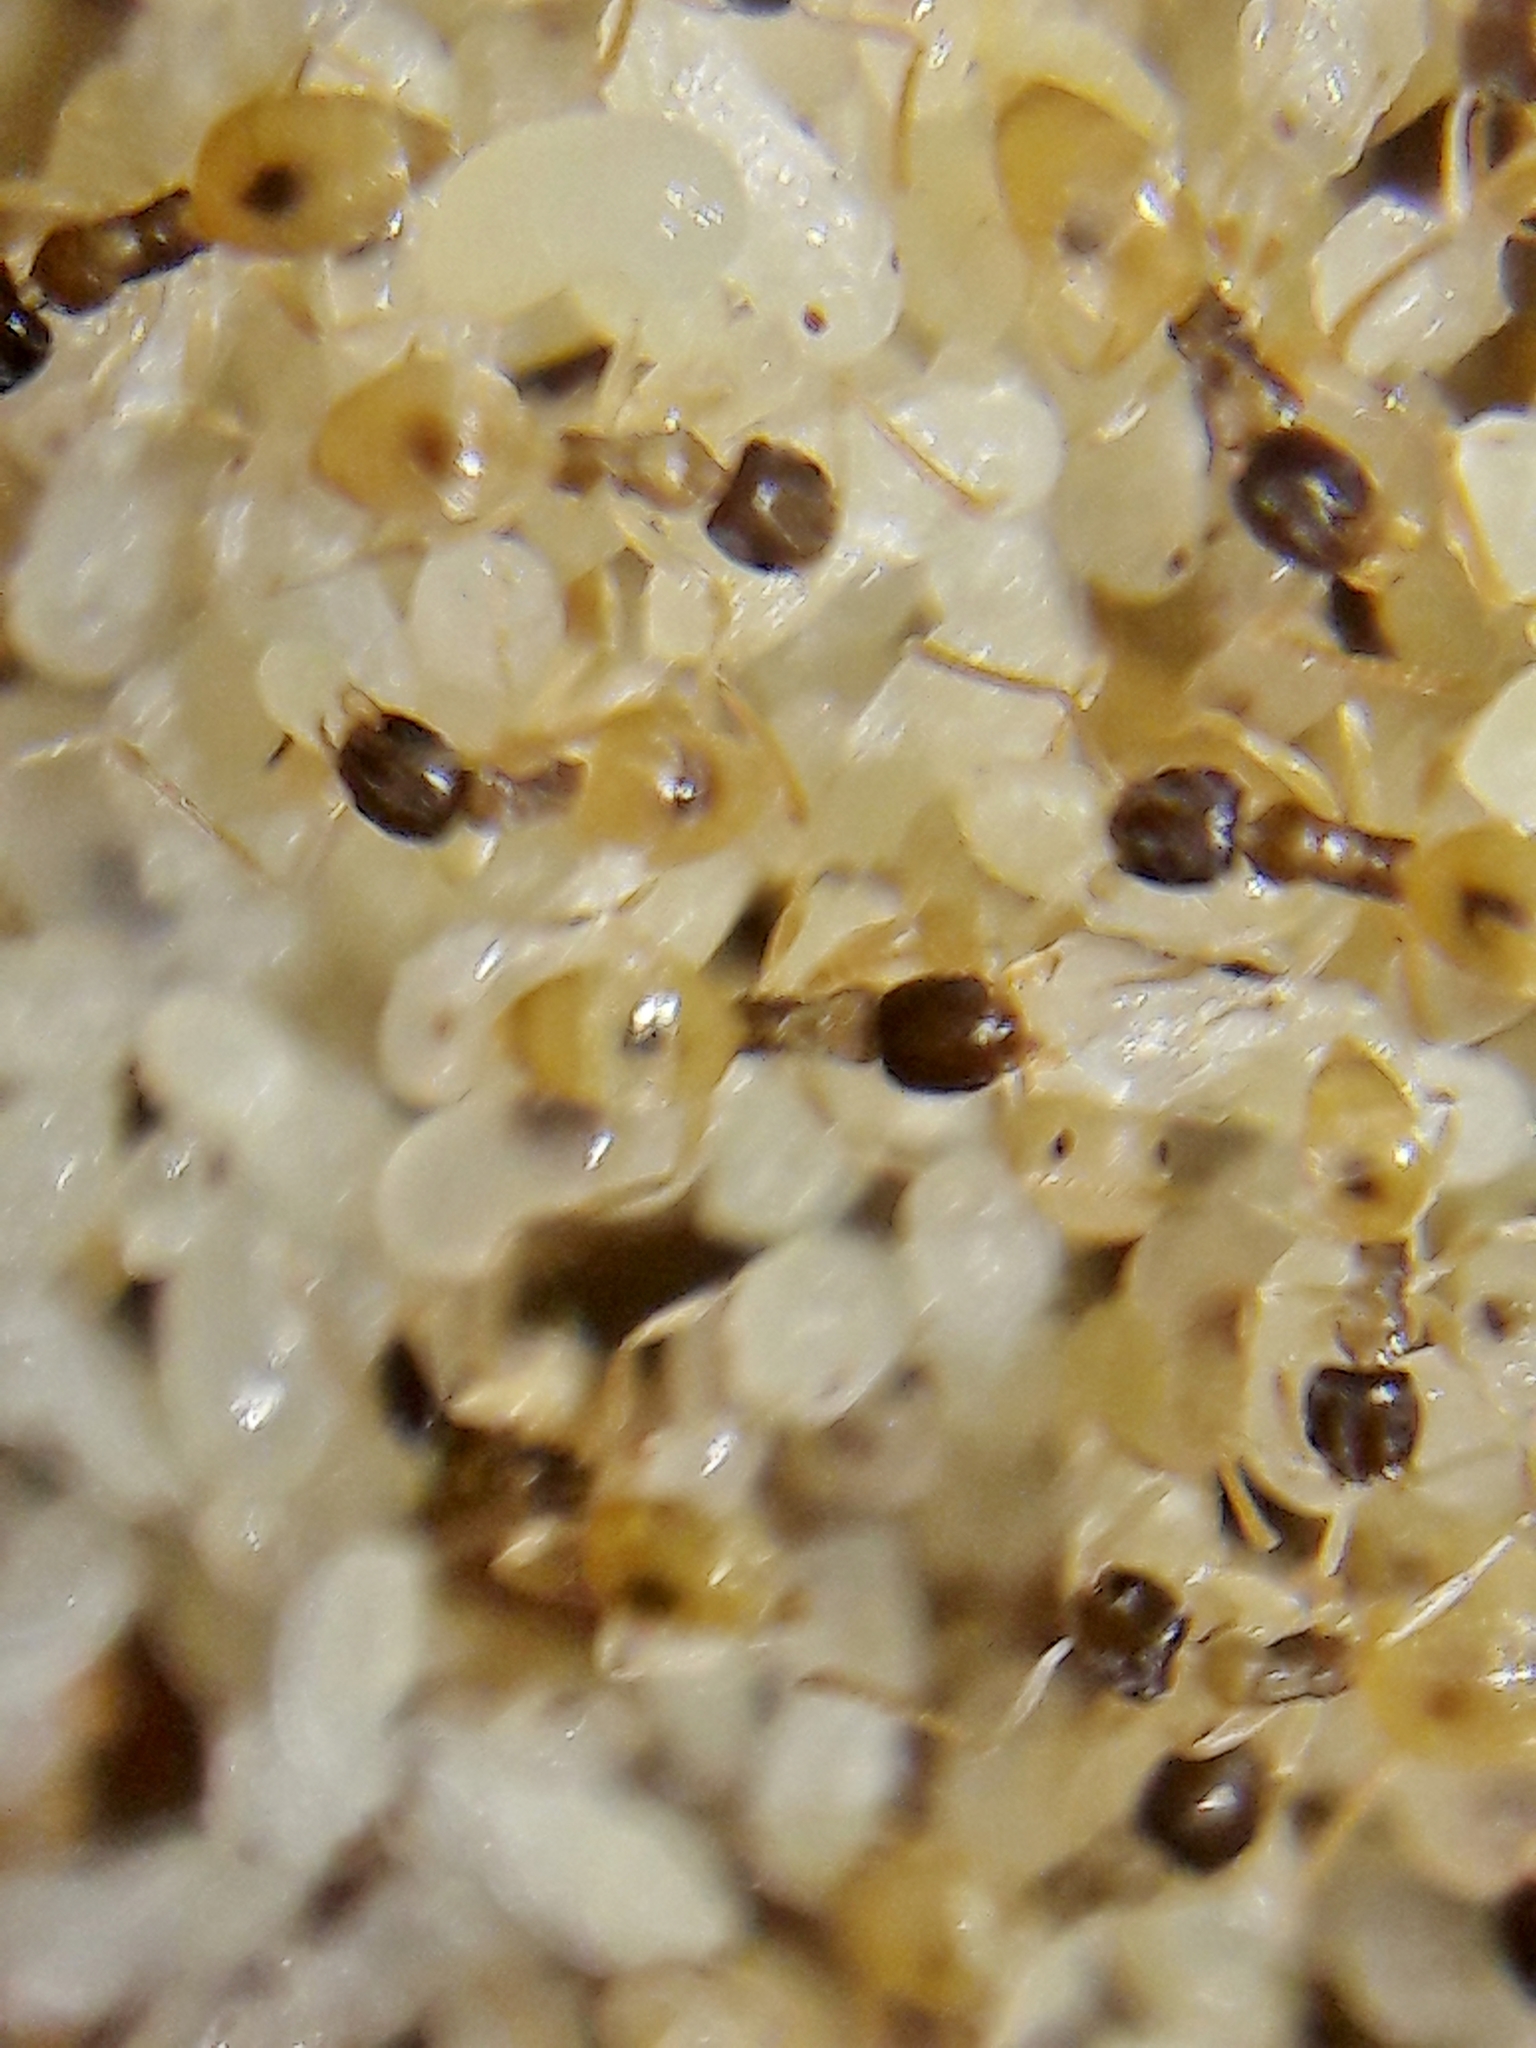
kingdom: Animalia
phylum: Arthropoda
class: Insecta
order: Hymenoptera
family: Formicidae
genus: Tapinoma
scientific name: Tapinoma melanocephalum
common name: Ghost ant
